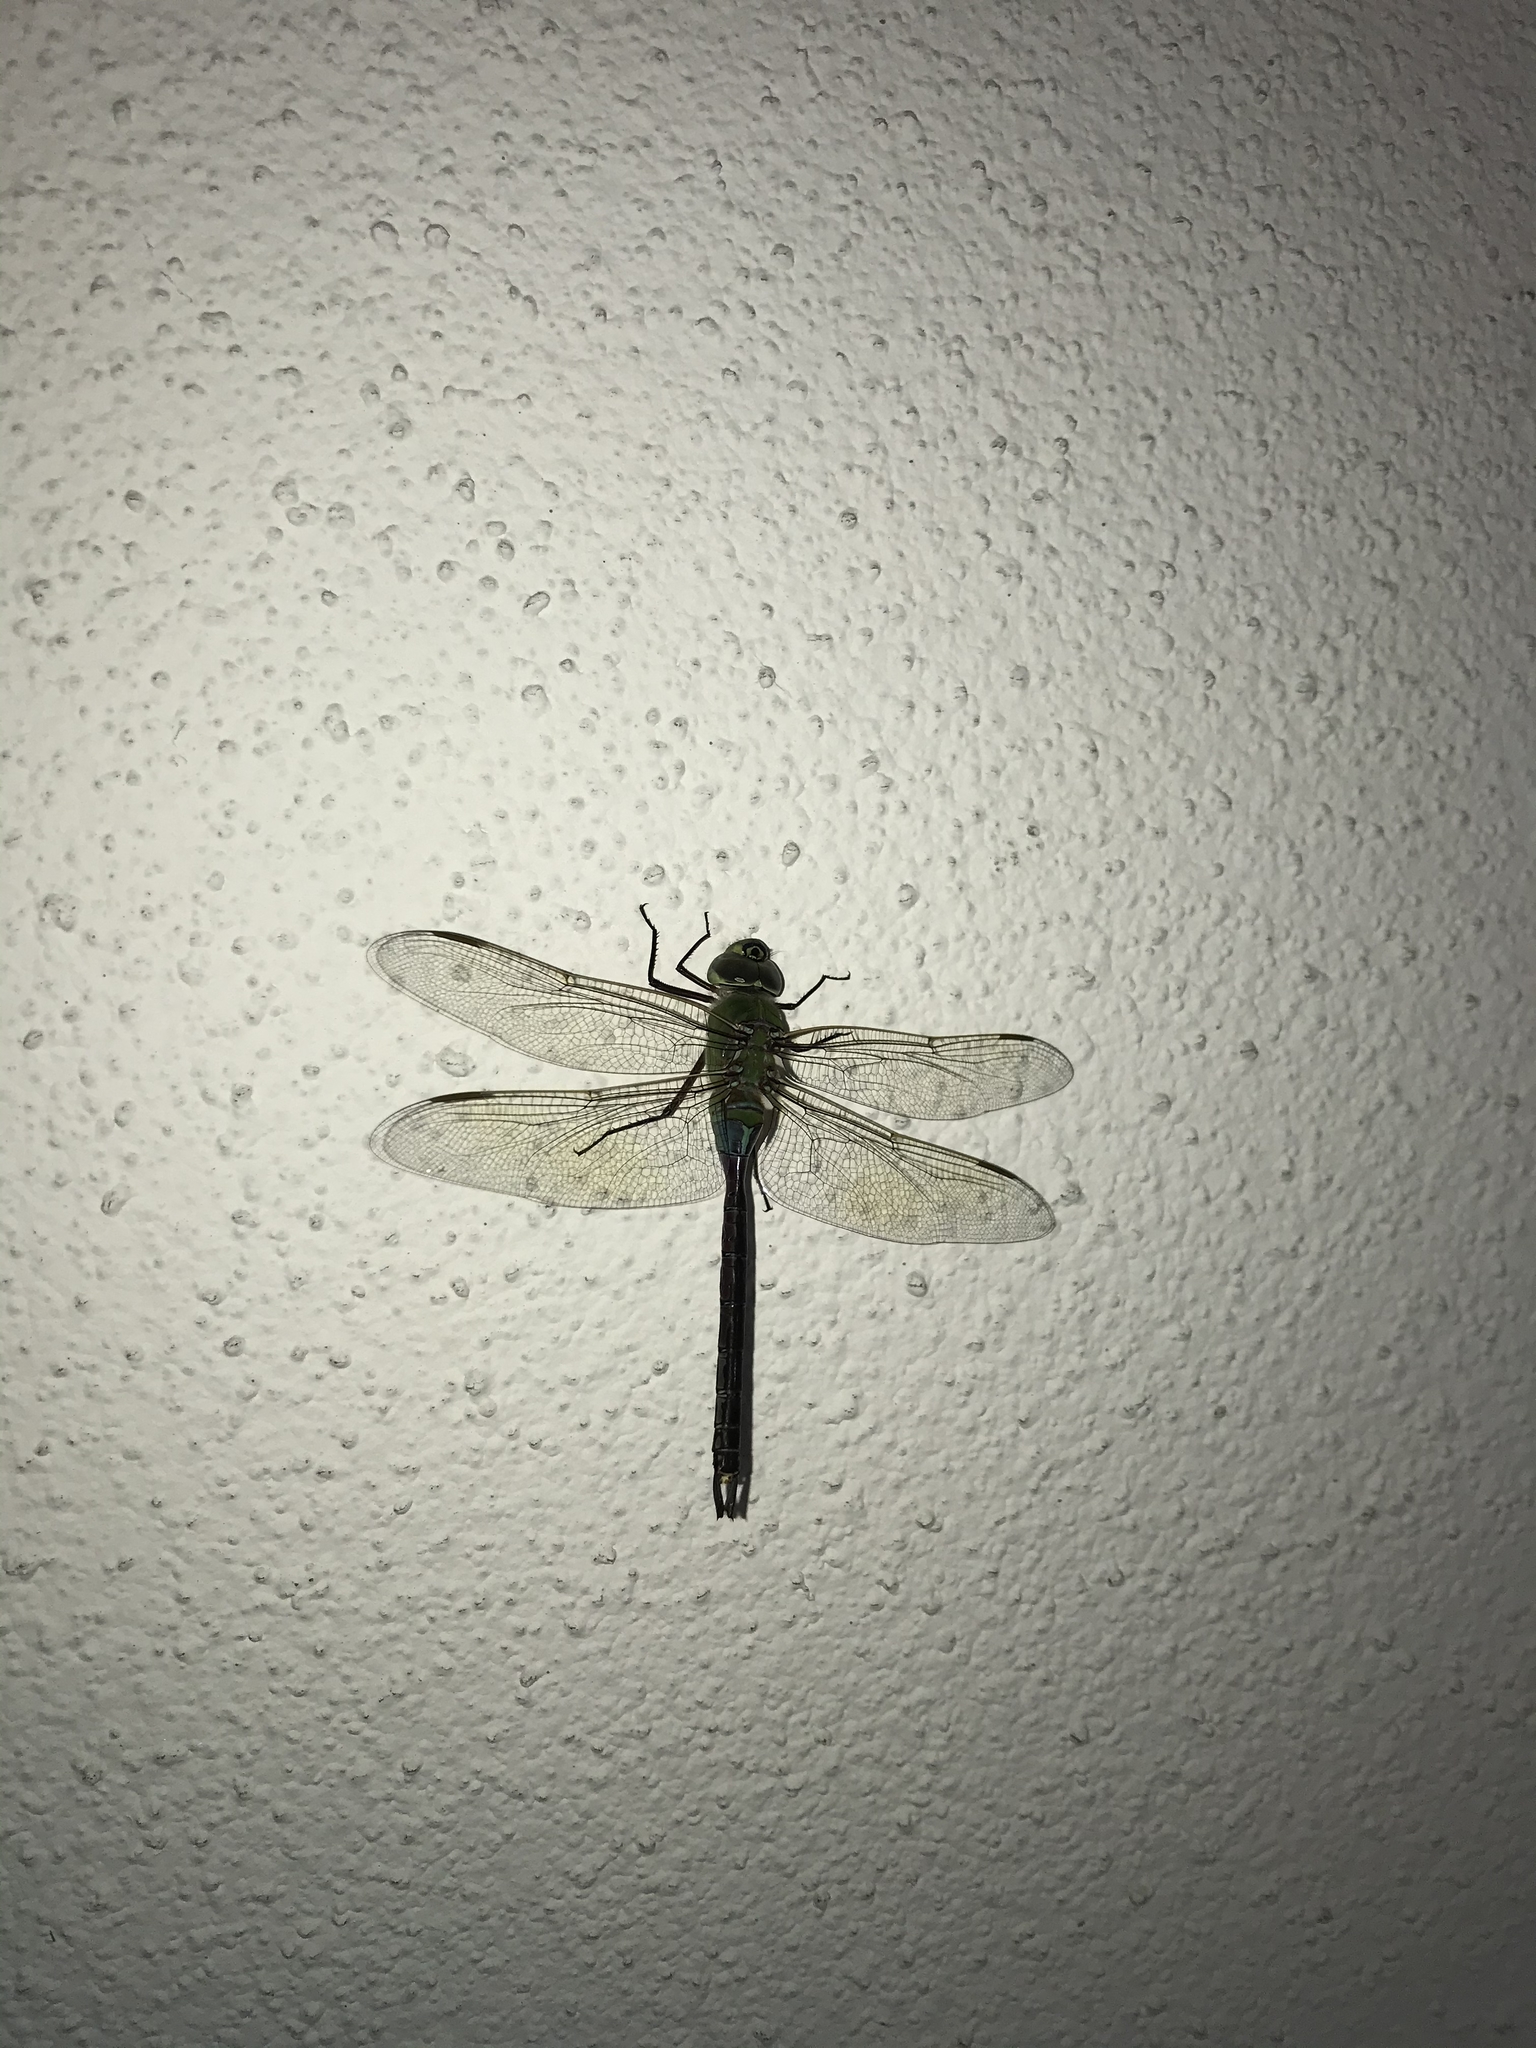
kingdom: Animalia
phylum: Arthropoda
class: Insecta
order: Odonata
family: Aeshnidae
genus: Anax
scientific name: Anax junius
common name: Common green darner
